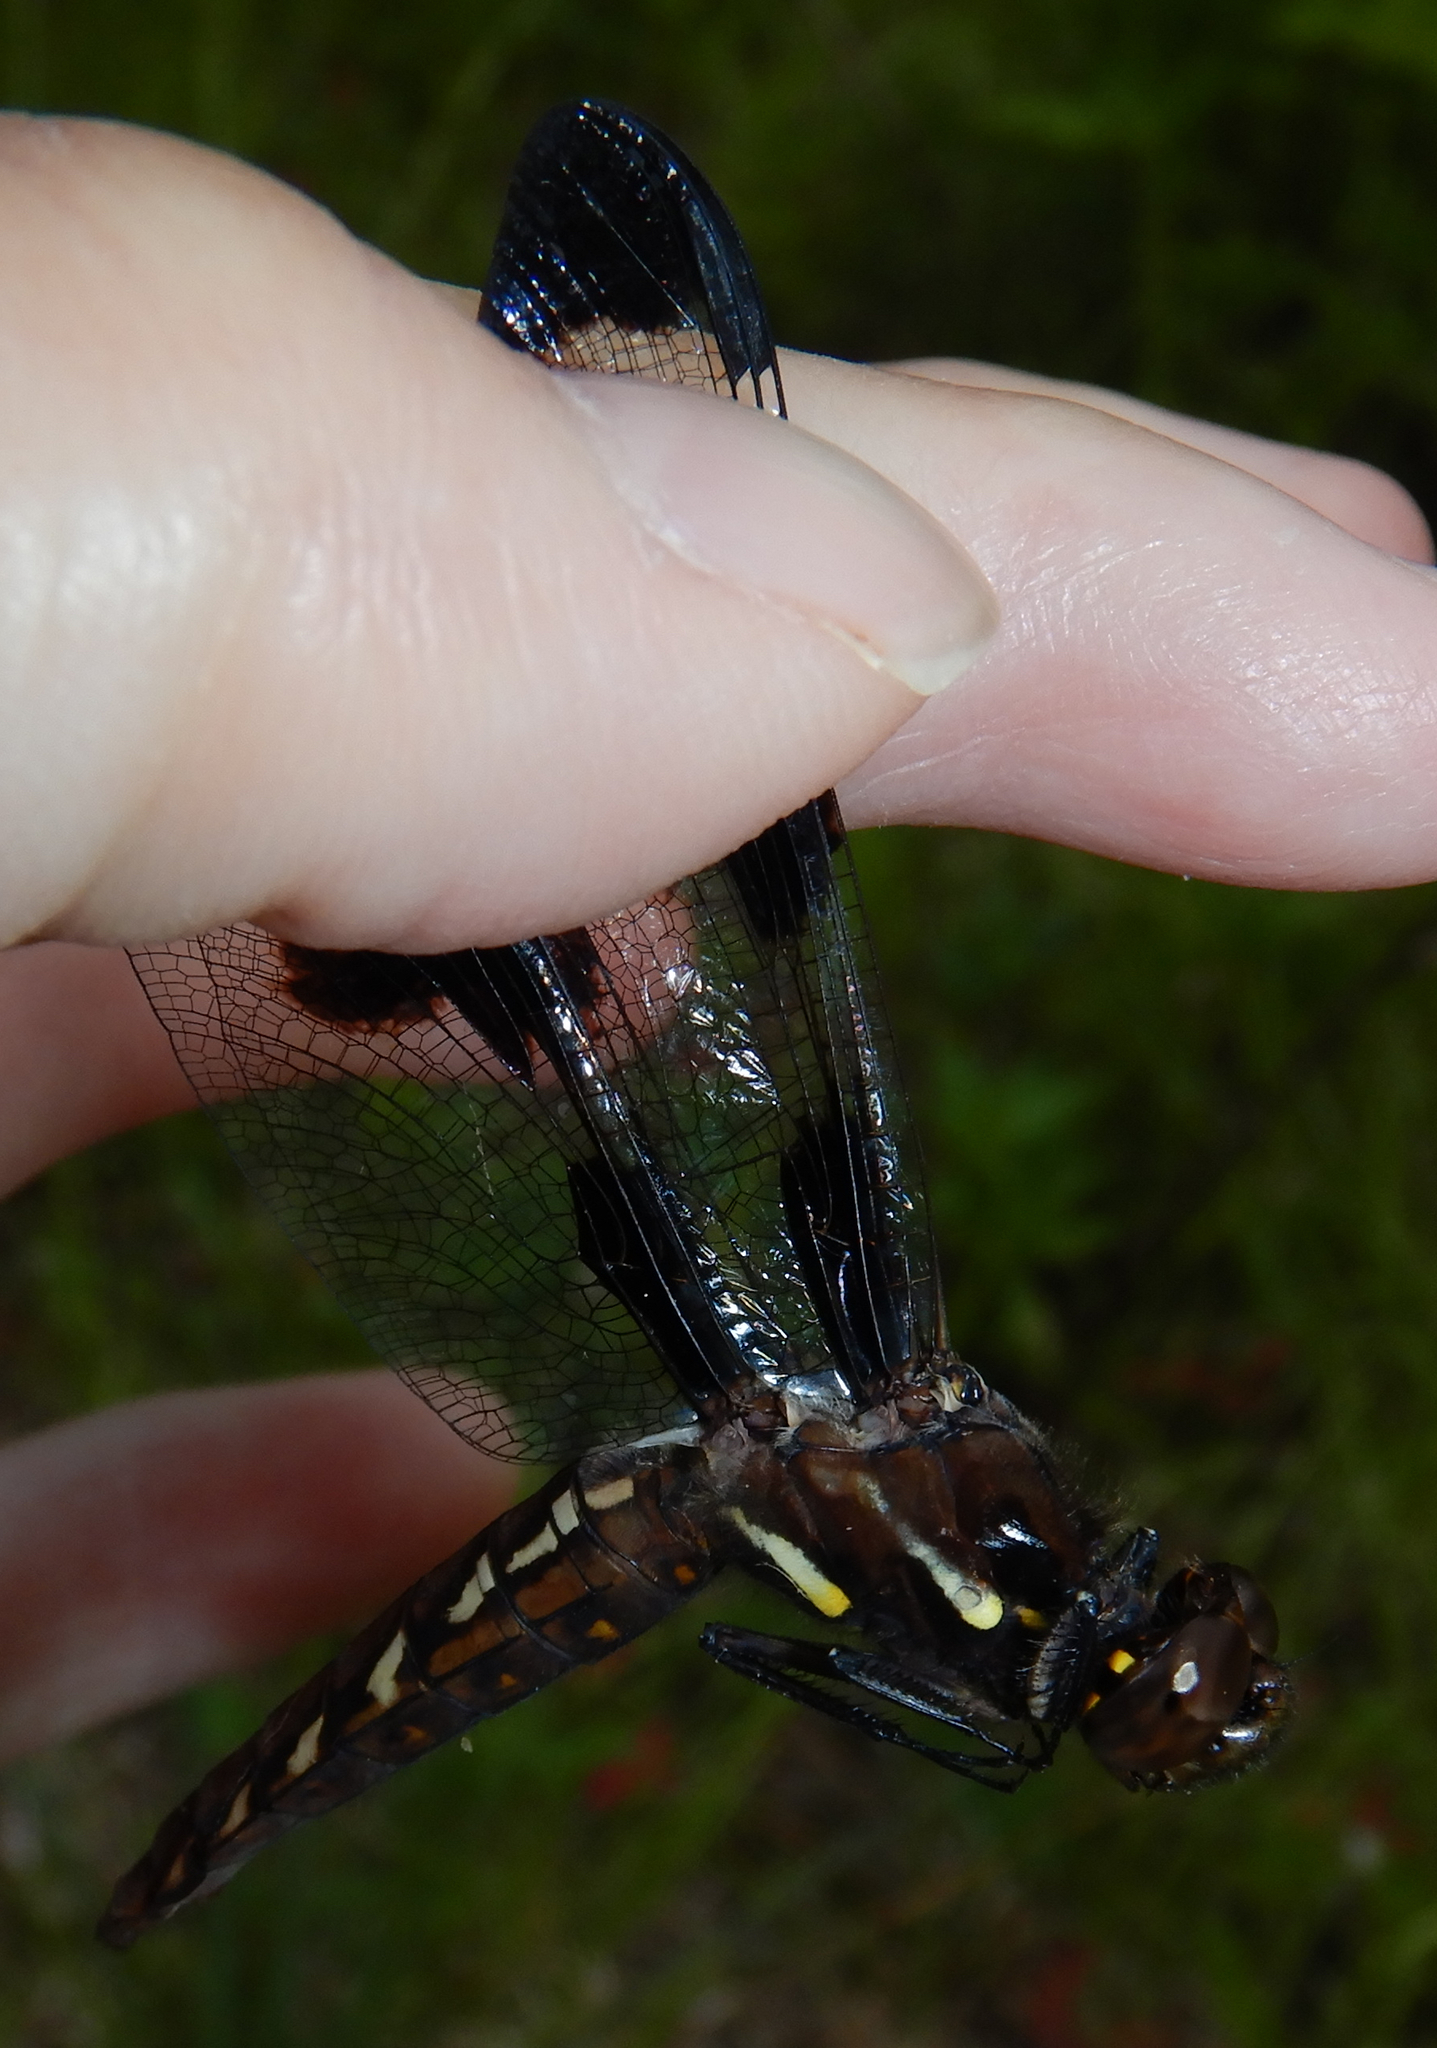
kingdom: Animalia
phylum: Arthropoda
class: Insecta
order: Odonata
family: Libellulidae
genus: Plathemis
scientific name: Plathemis lydia
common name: Common whitetail
